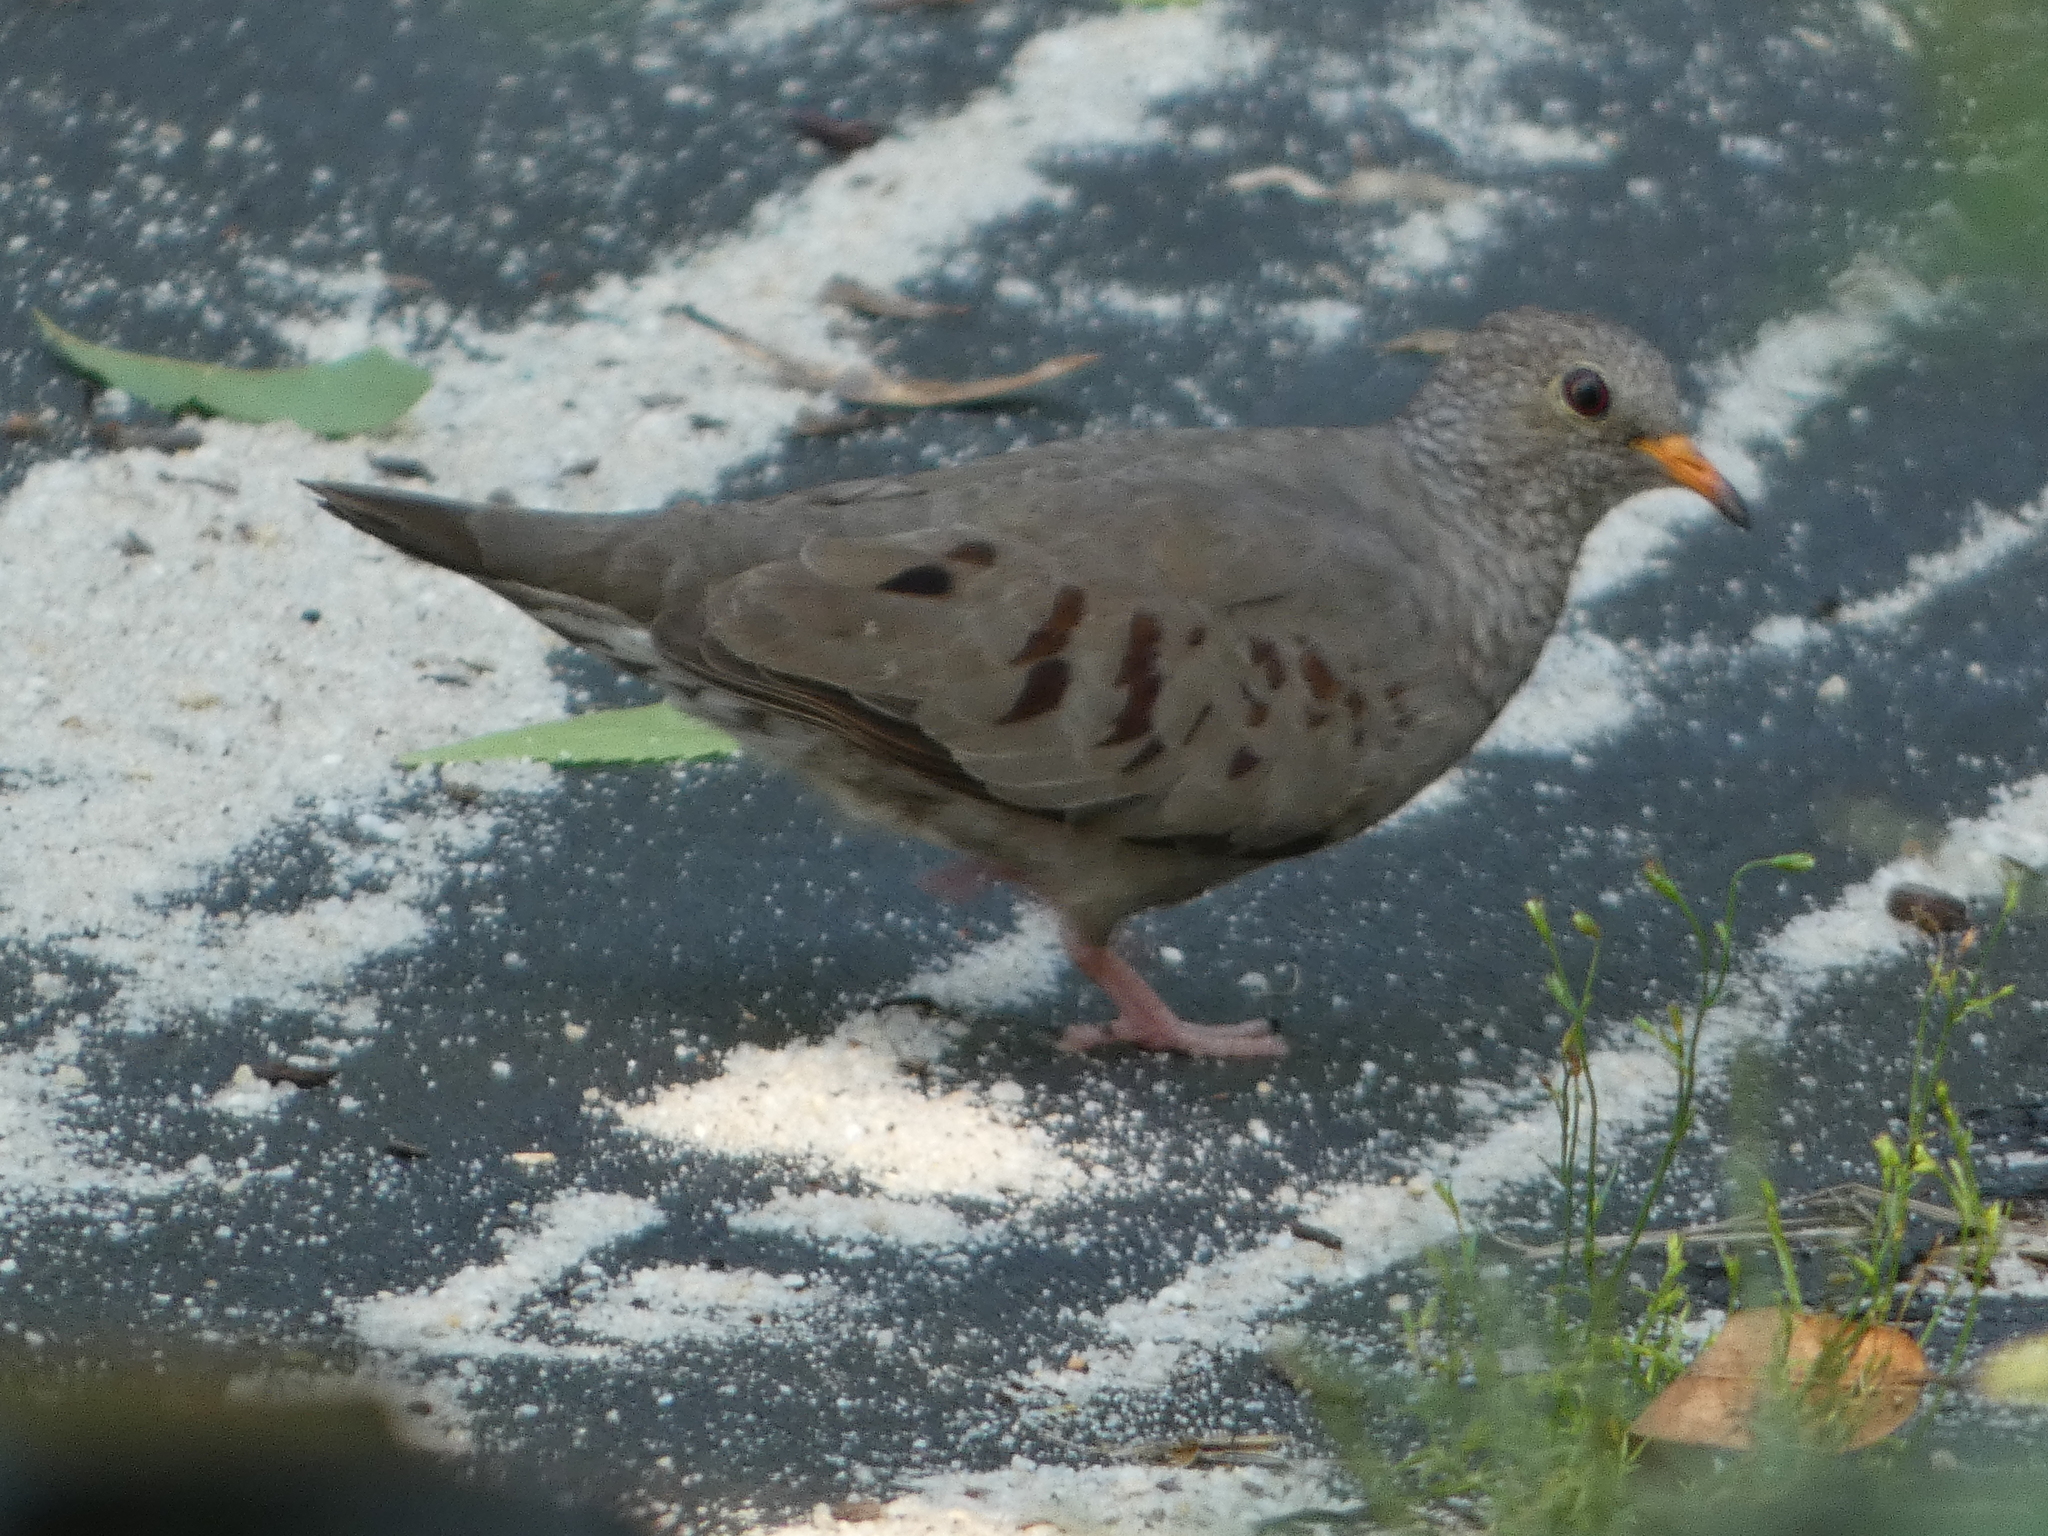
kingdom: Animalia
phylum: Chordata
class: Aves
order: Columbiformes
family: Columbidae
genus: Columbina
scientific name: Columbina passerina
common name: Common ground-dove
